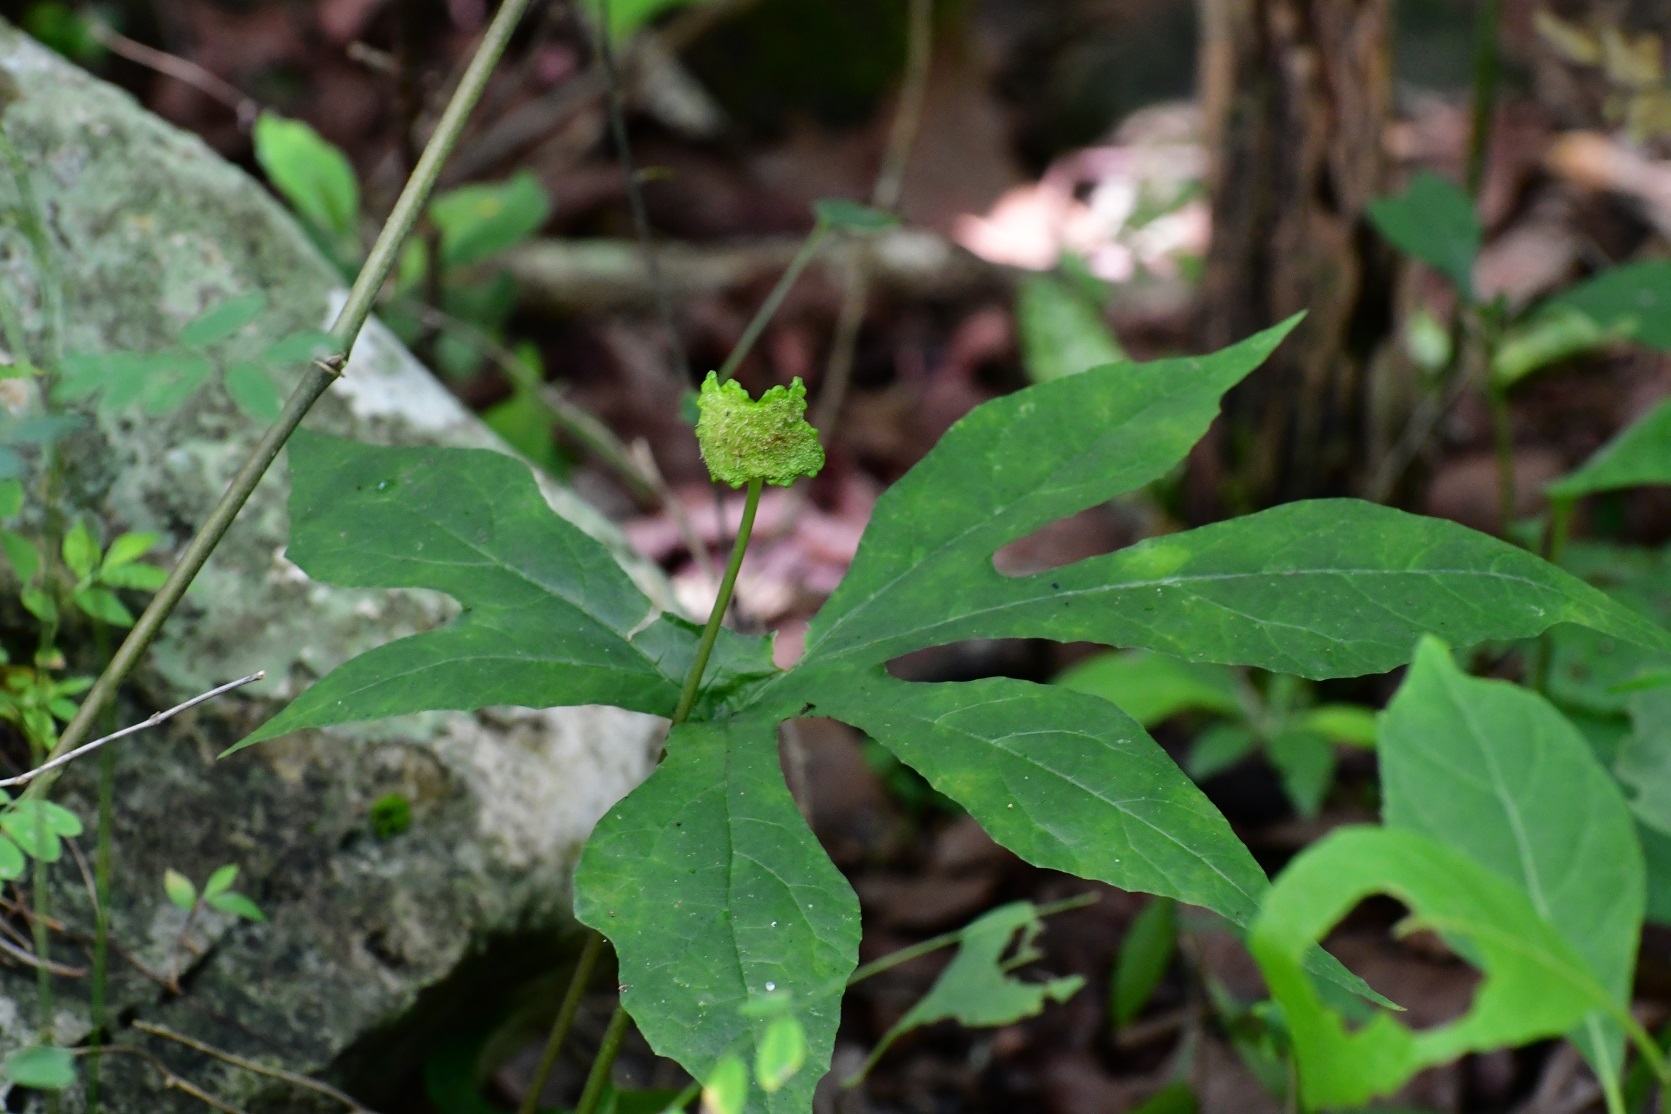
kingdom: Plantae
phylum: Tracheophyta
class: Magnoliopsida
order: Rosales
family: Moraceae
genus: Dorstenia
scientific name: Dorstenia contrajerva
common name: Tusilla
